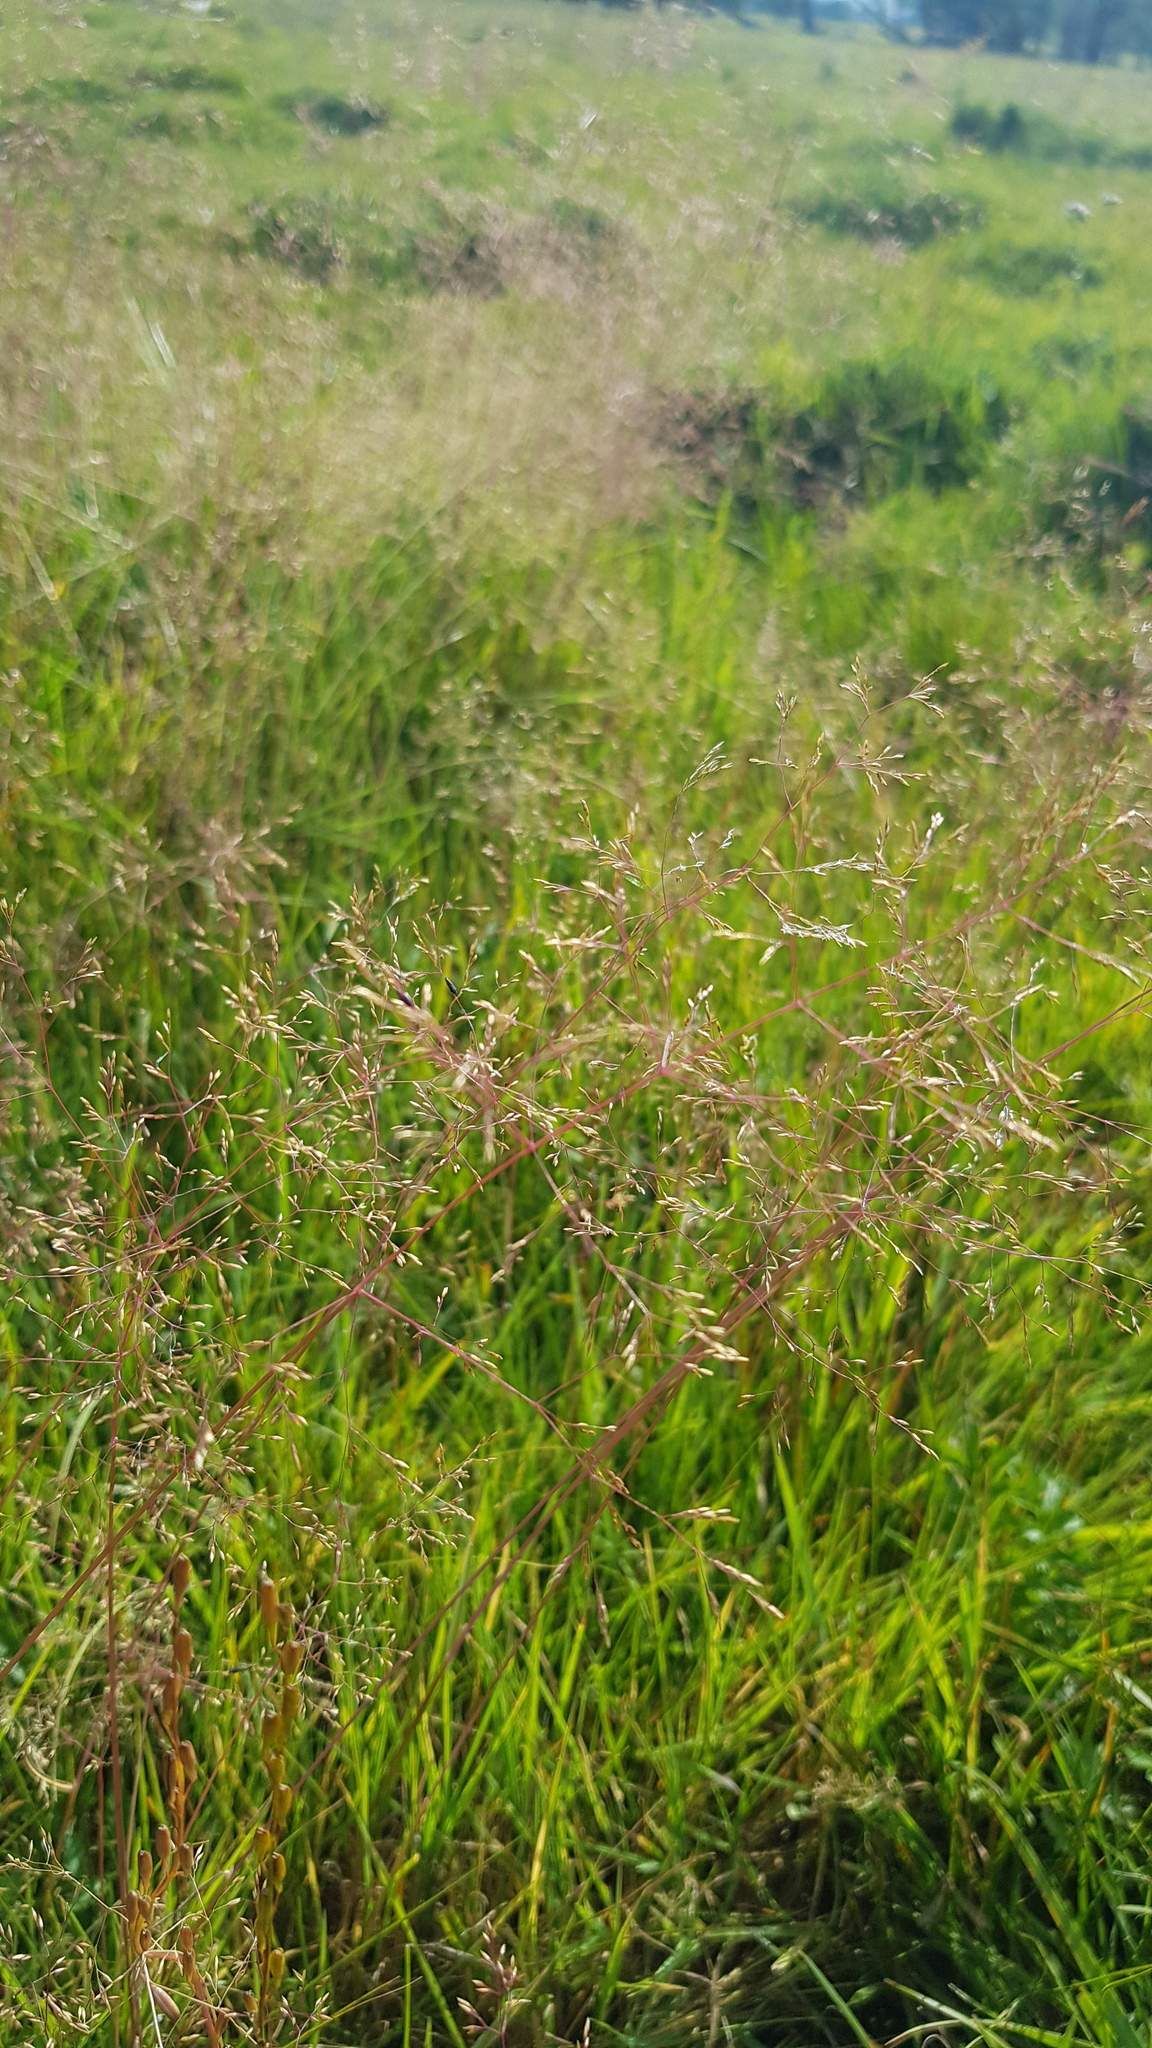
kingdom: Plantae
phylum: Tracheophyta
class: Liliopsida
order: Poales
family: Poaceae
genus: Agrostis
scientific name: Agrostis vinealis
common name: Brown bent
